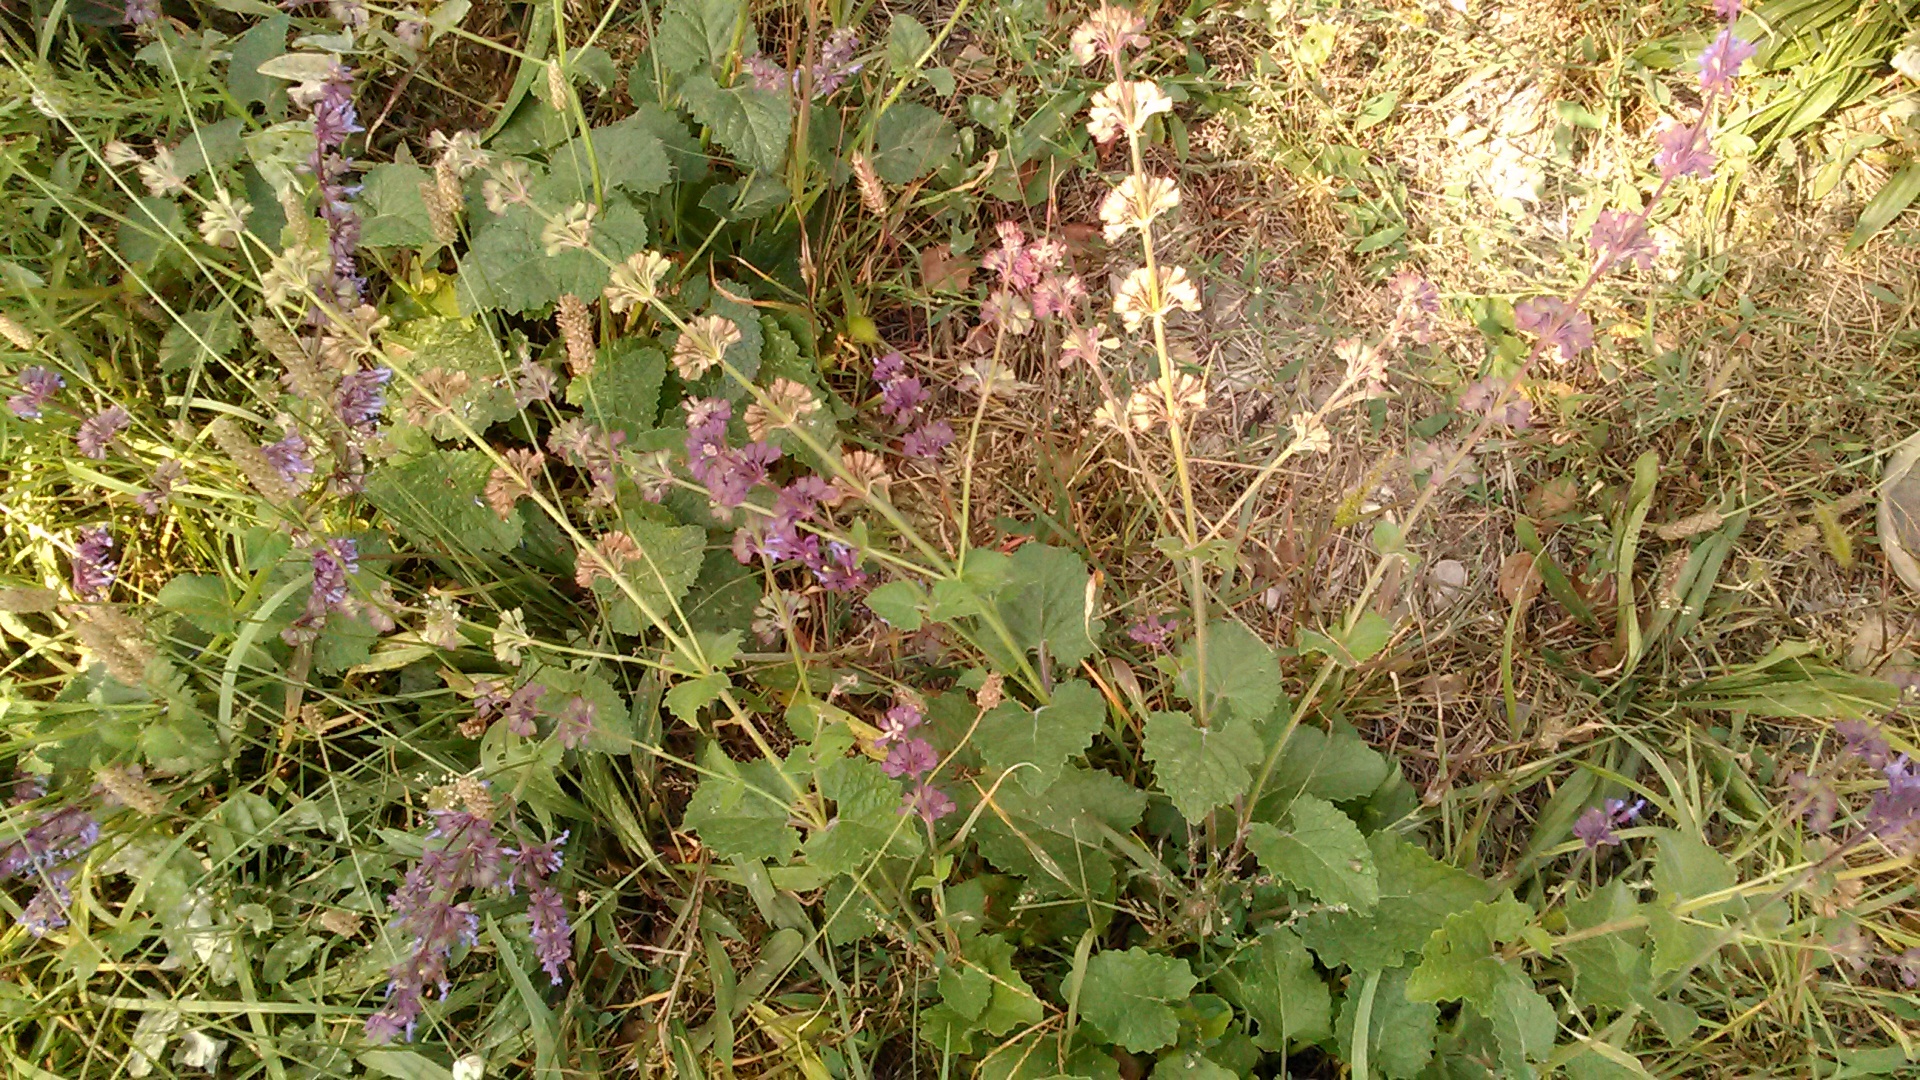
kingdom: Plantae
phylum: Tracheophyta
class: Magnoliopsida
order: Lamiales
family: Lamiaceae
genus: Salvia
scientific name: Salvia verticillata
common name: Whorled clary
